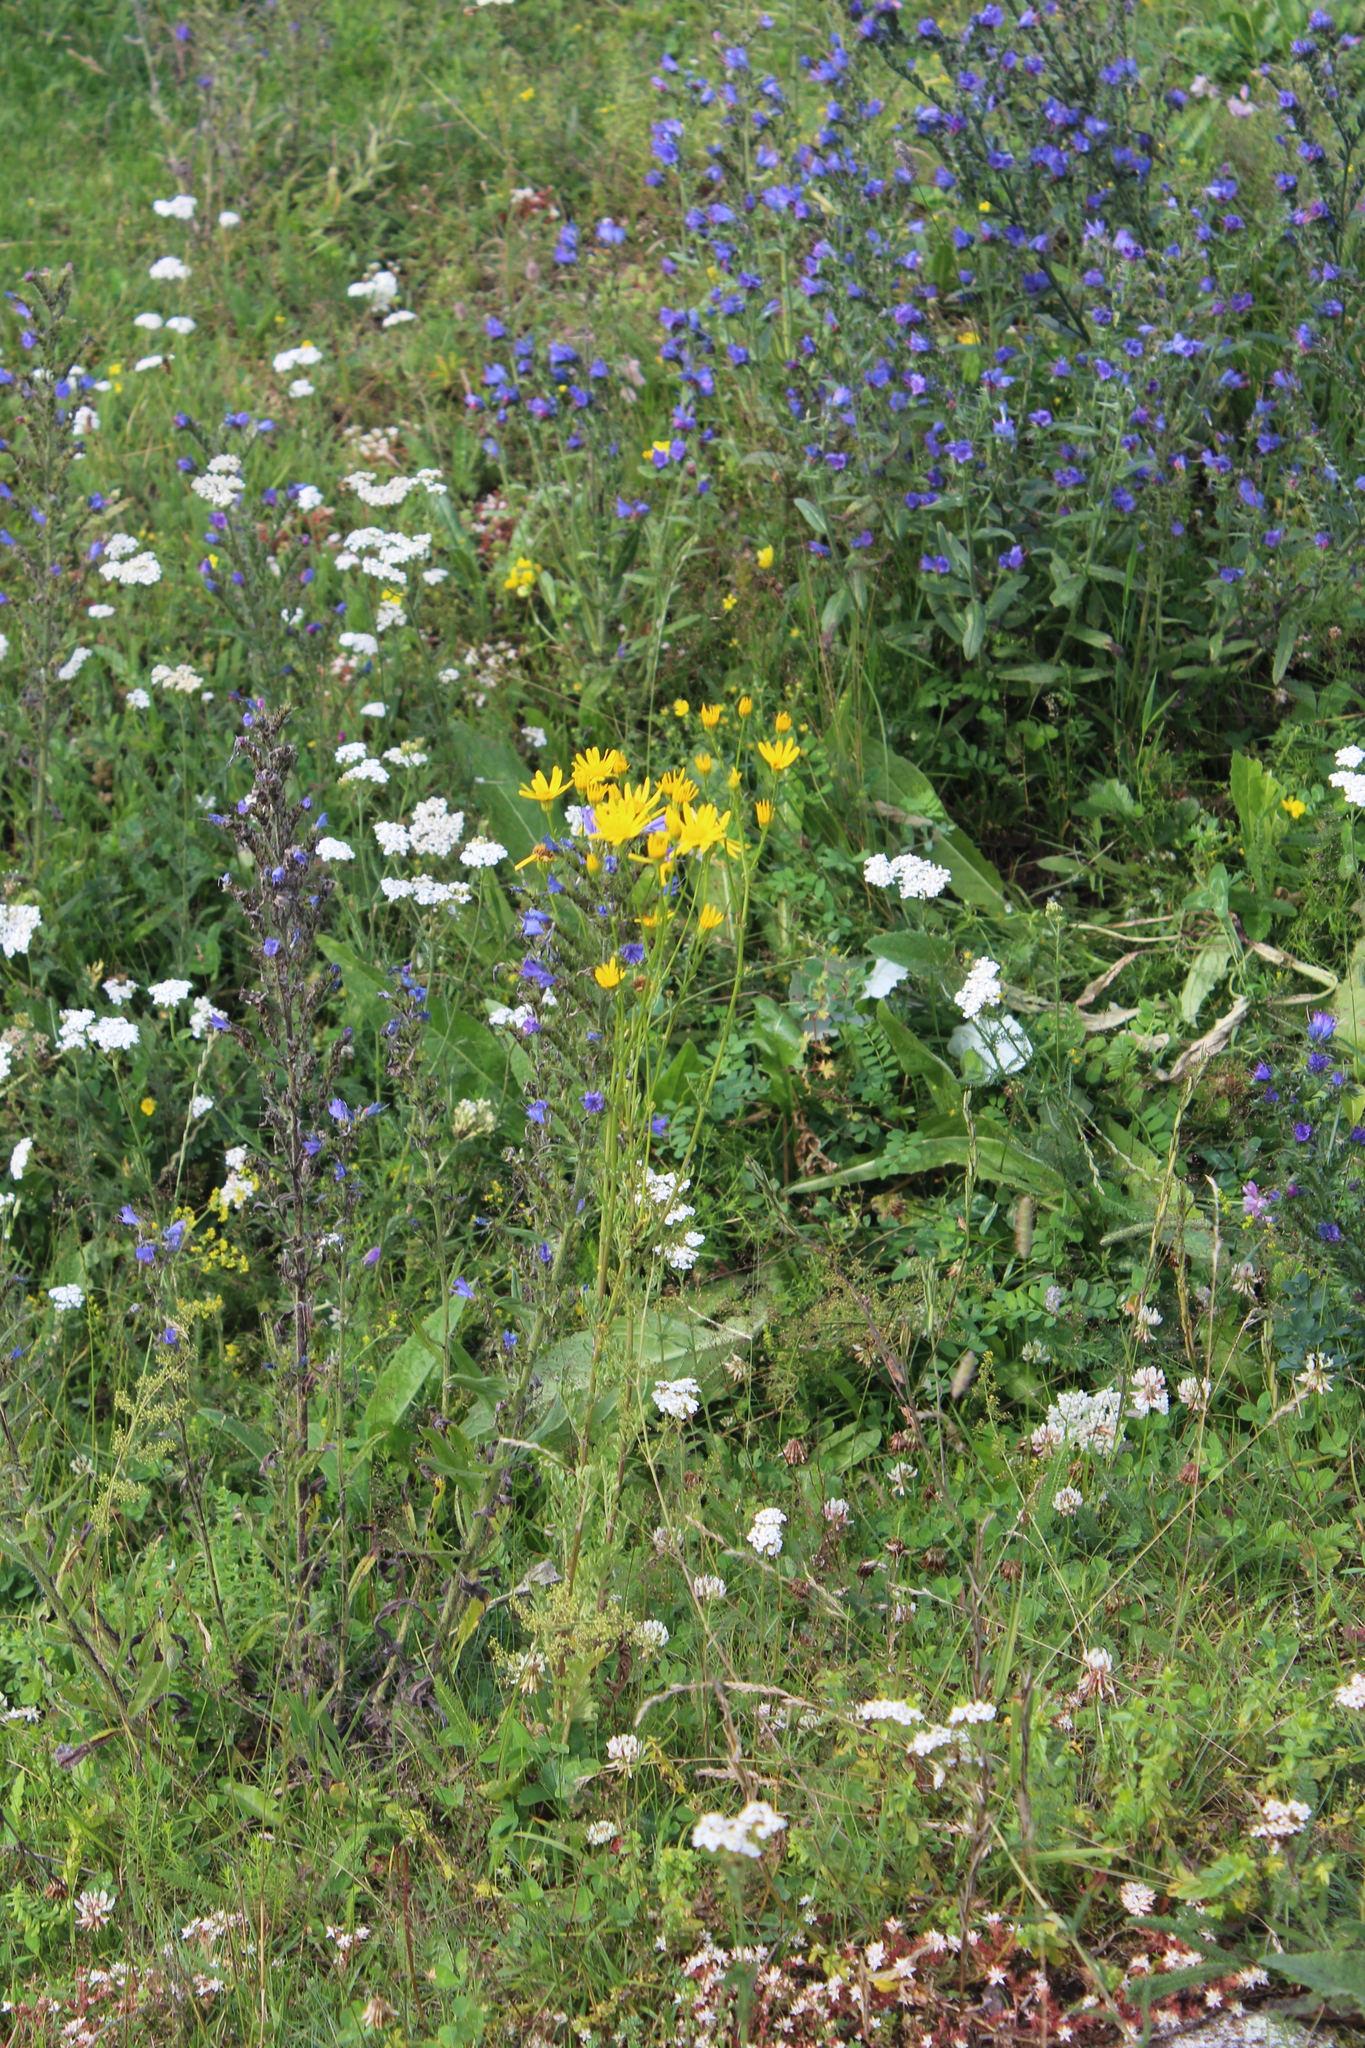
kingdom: Plantae
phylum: Tracheophyta
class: Magnoliopsida
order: Asterales
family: Asteraceae
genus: Jacobaea
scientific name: Jacobaea vulgaris
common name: Stinking willie
